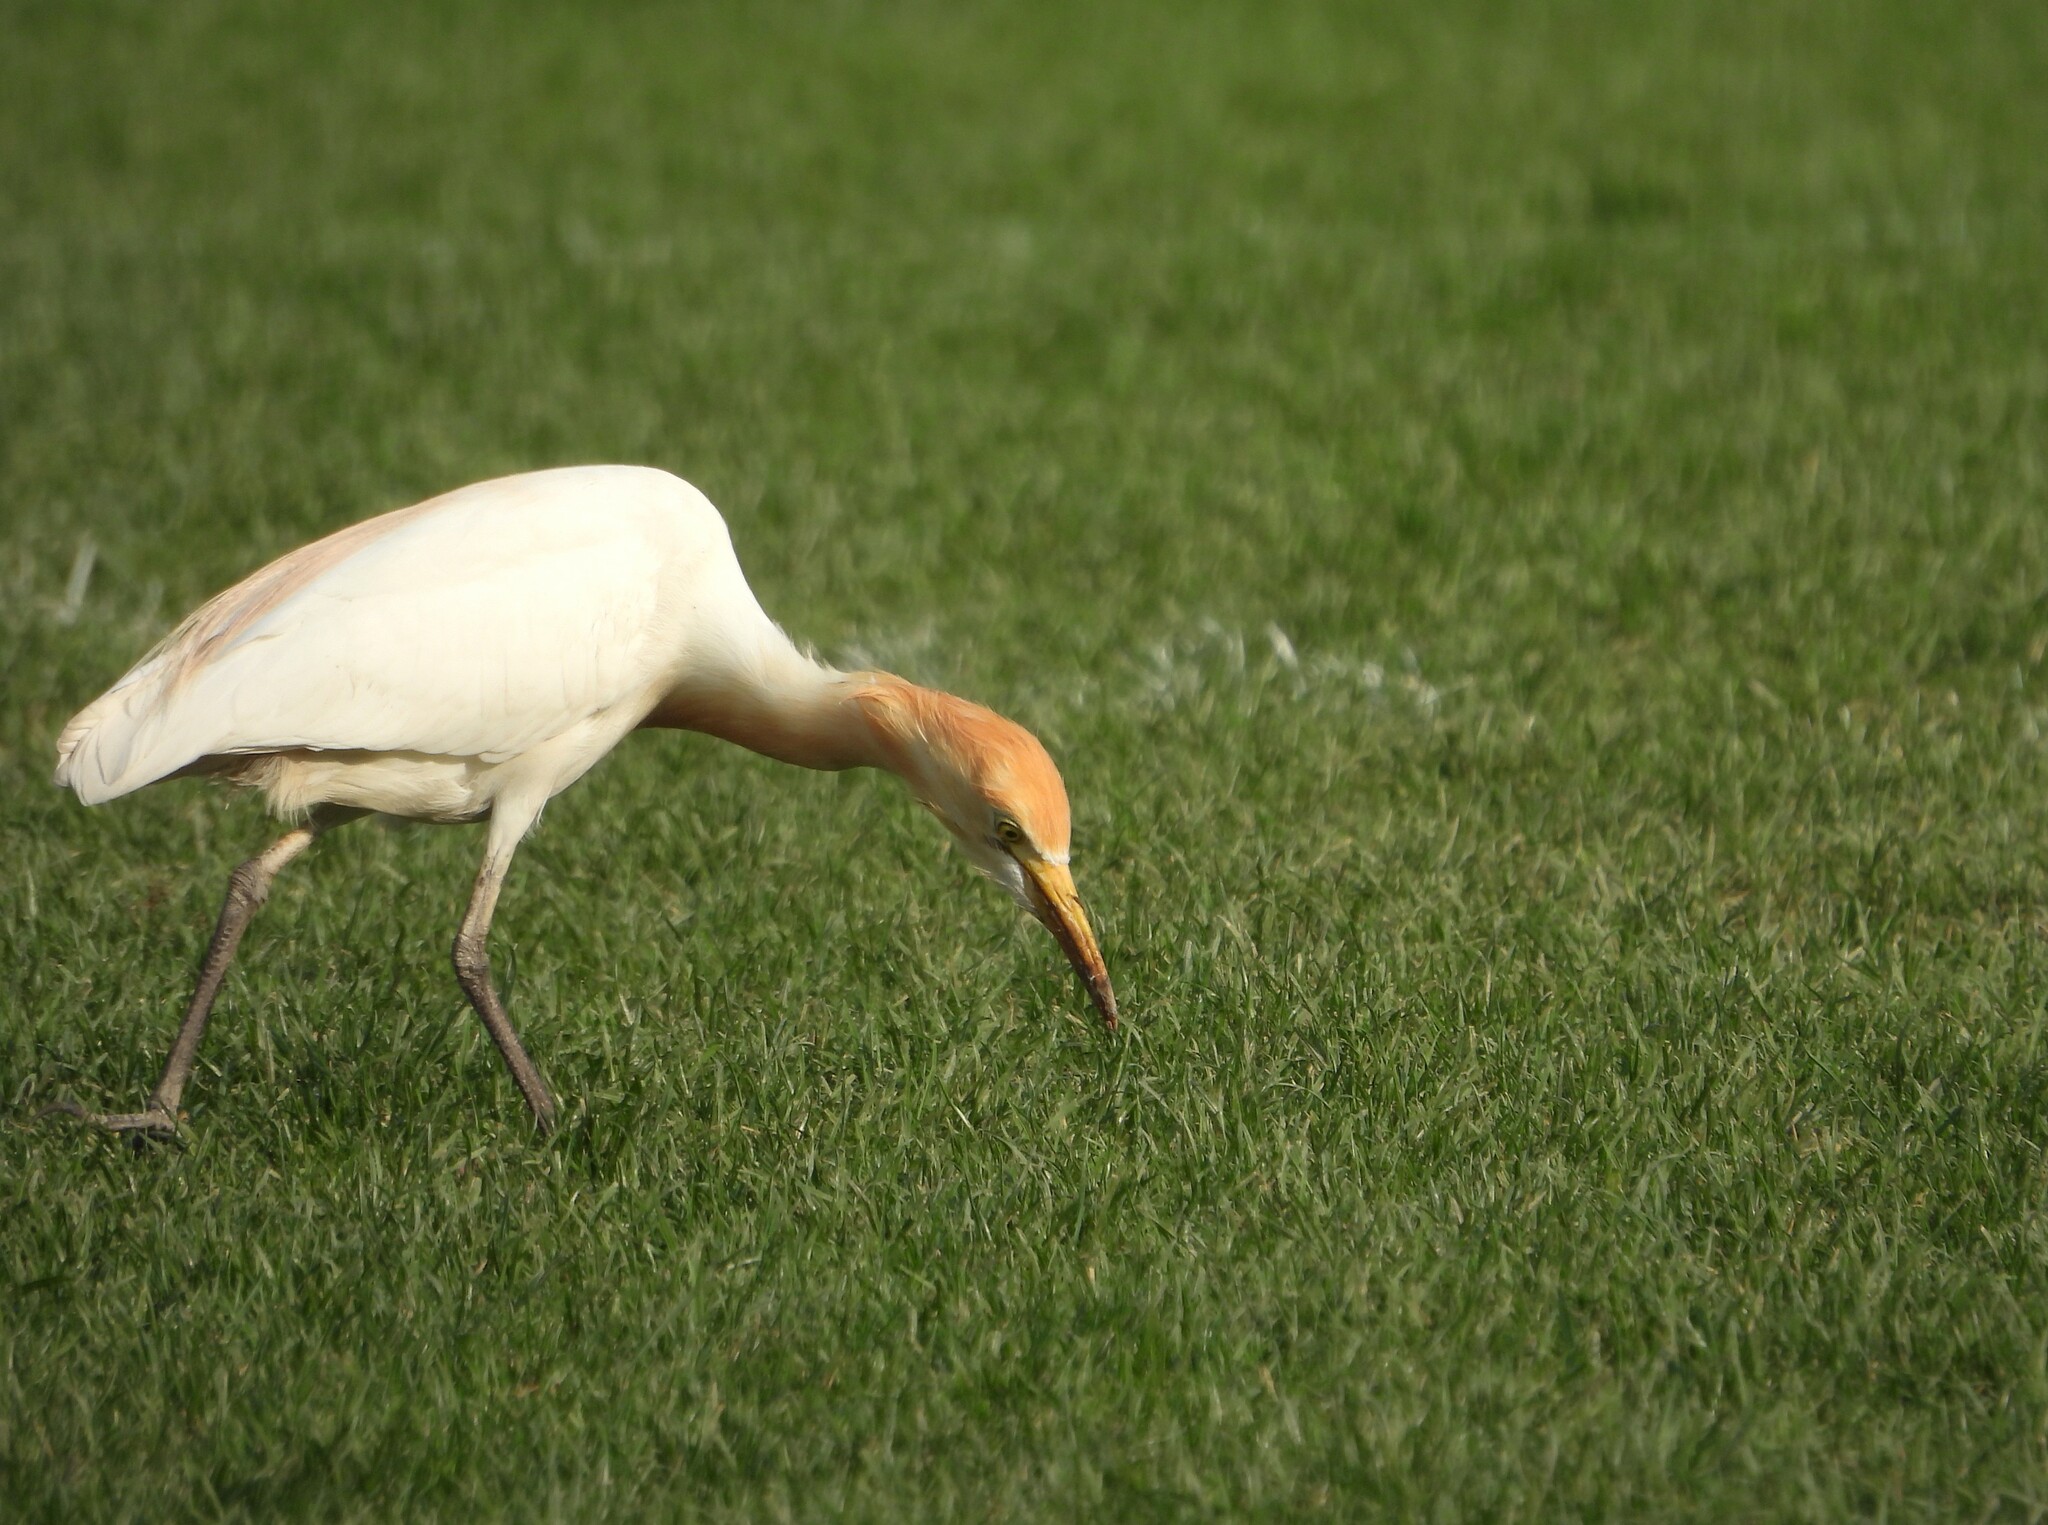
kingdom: Animalia
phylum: Chordata
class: Aves
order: Pelecaniformes
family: Ardeidae
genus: Bubulcus
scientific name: Bubulcus coromandus
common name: Eastern cattle egret
